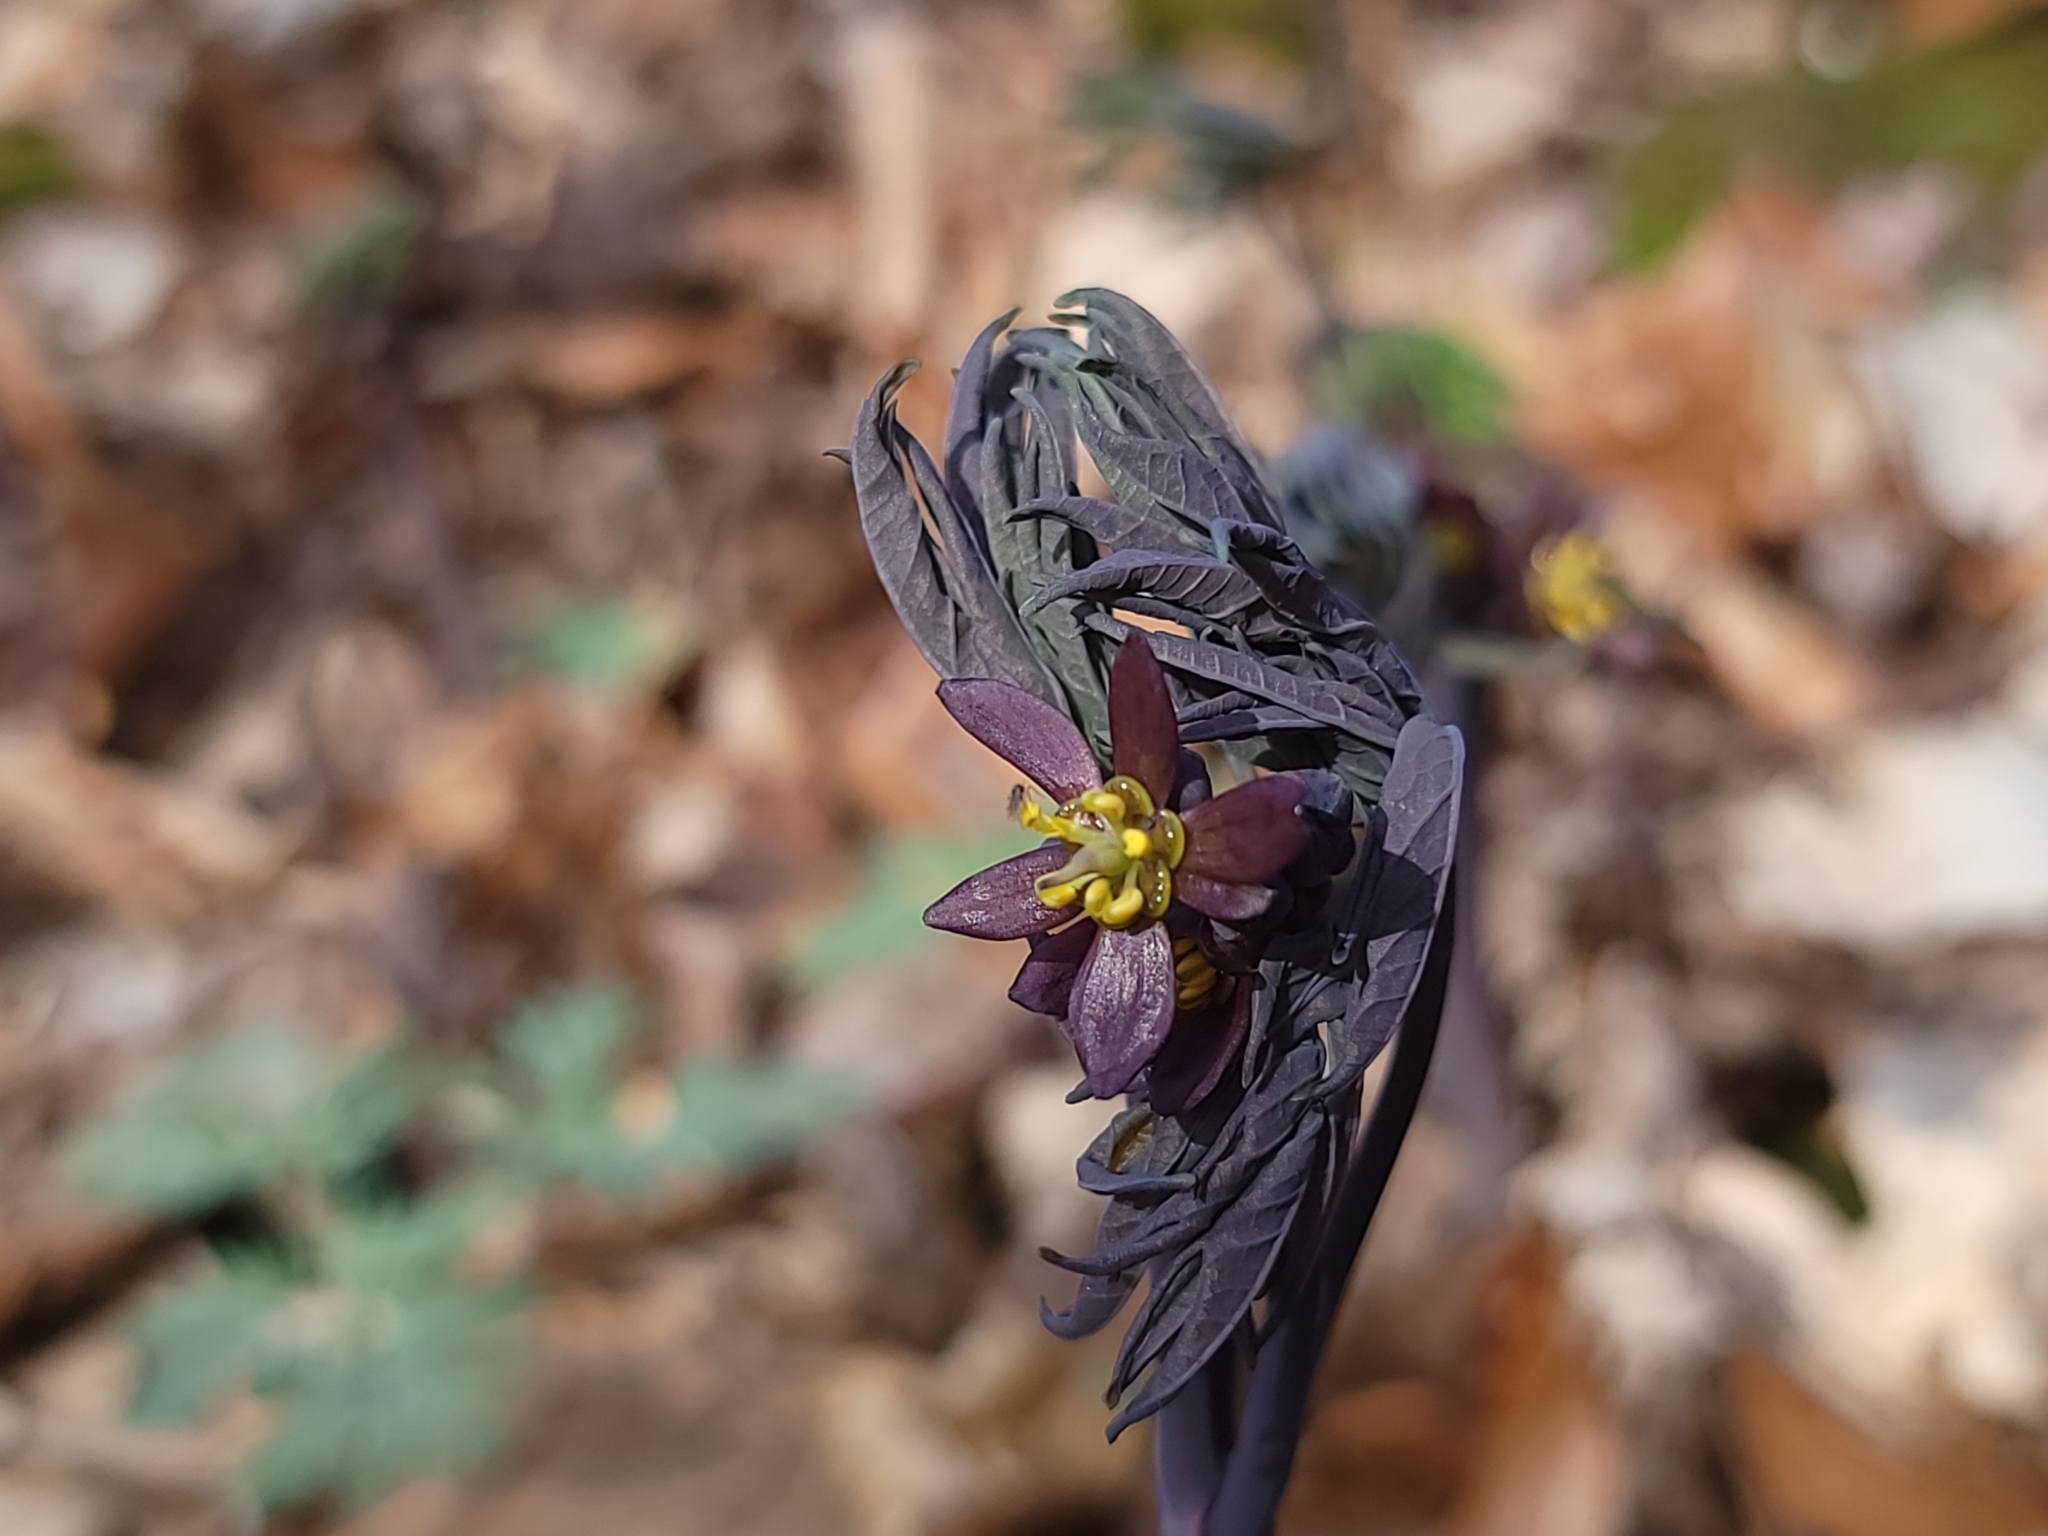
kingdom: Plantae
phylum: Tracheophyta
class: Magnoliopsida
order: Ranunculales
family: Berberidaceae
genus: Caulophyllum
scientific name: Caulophyllum giganteum
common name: Blue cohosh
